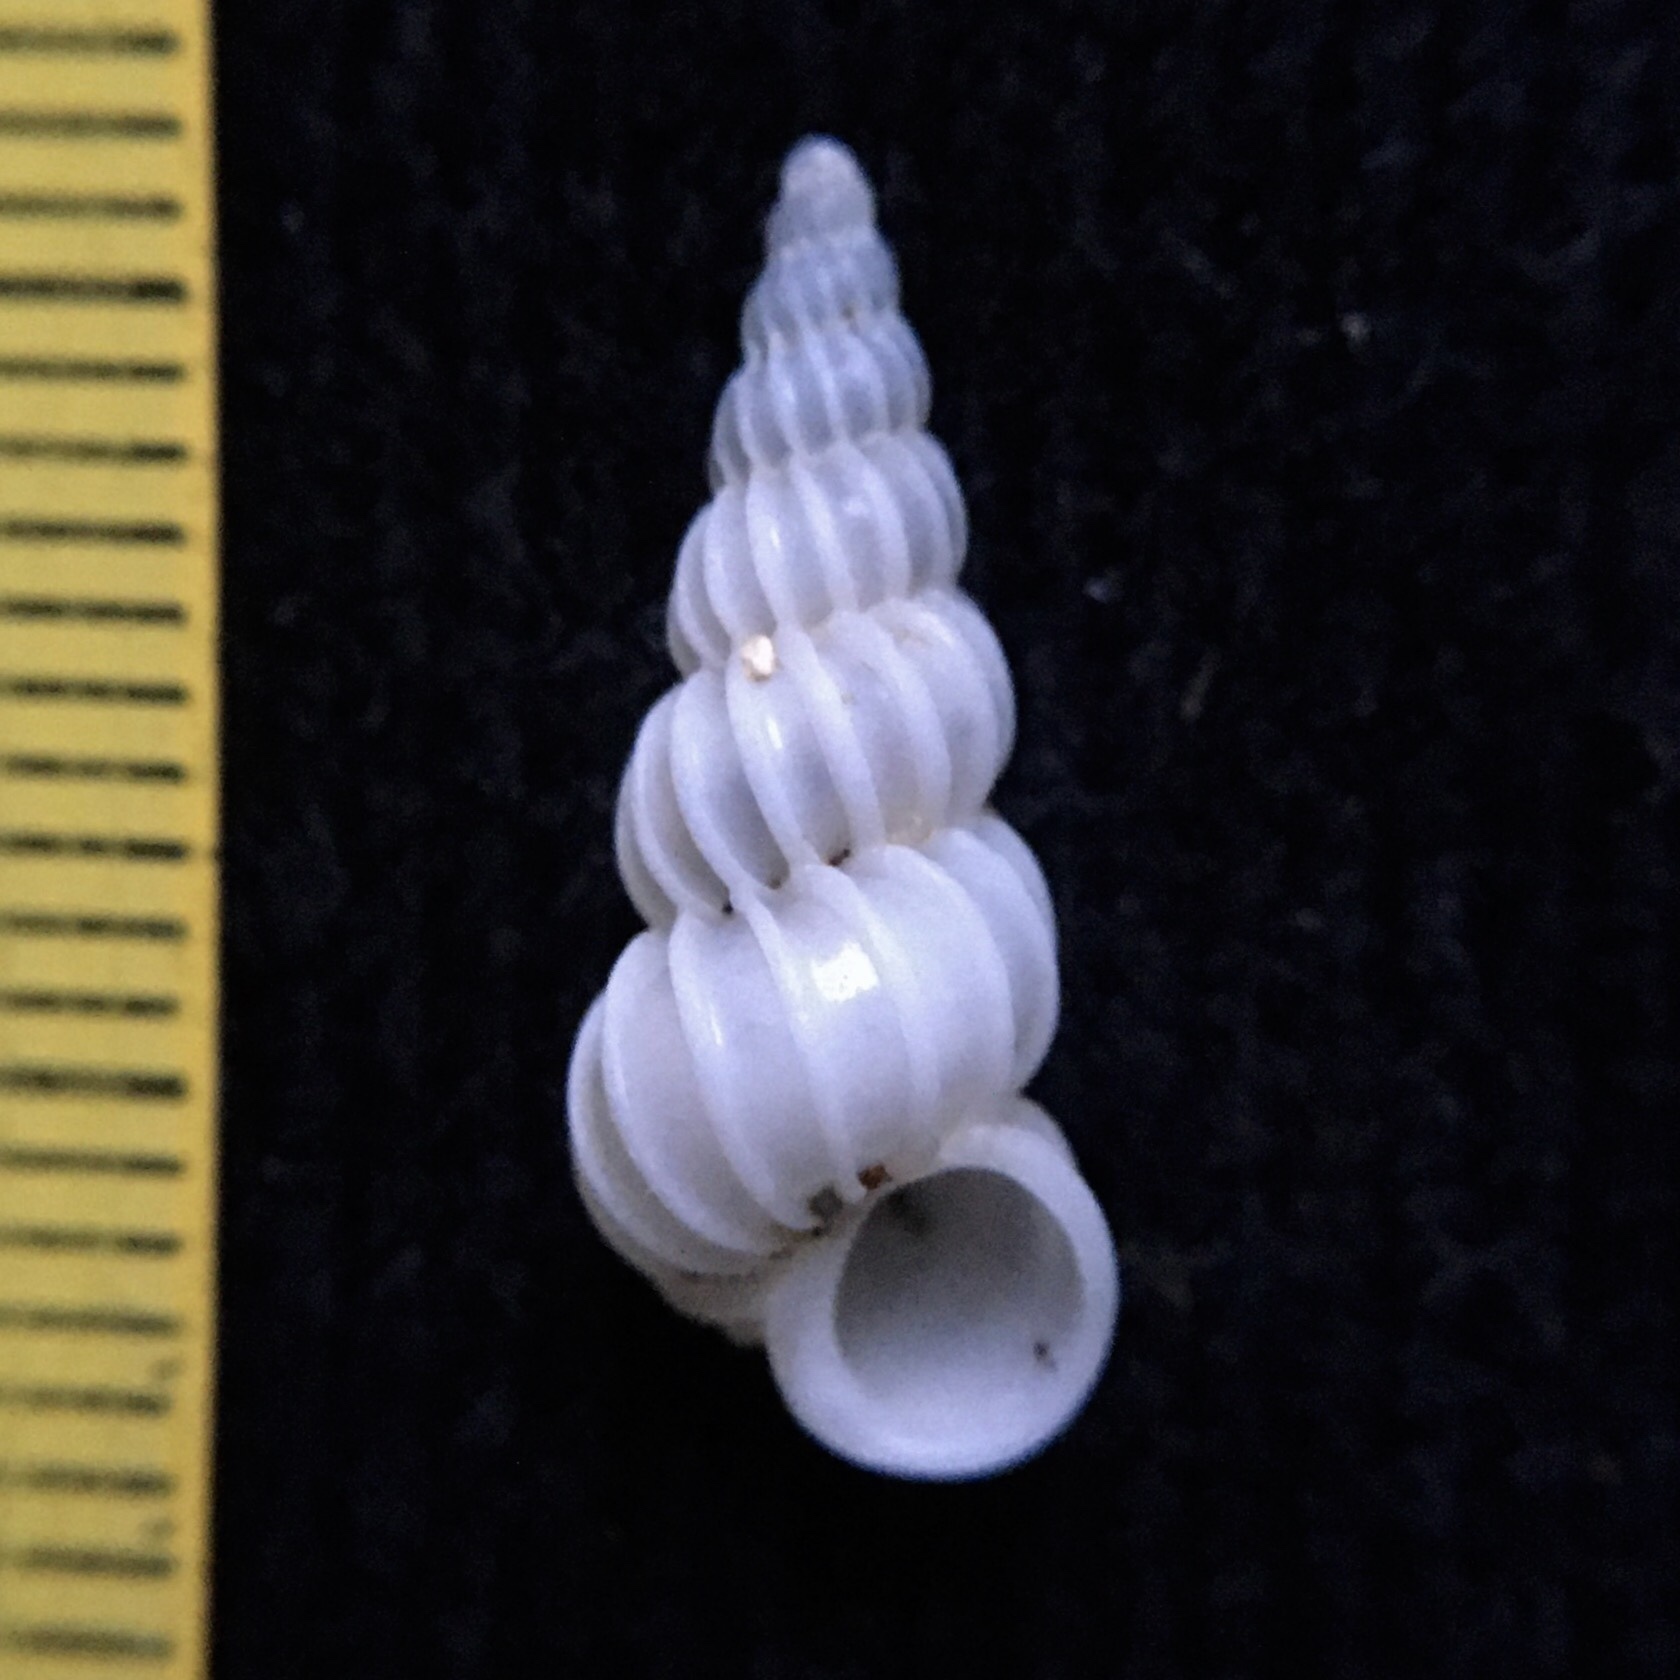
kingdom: Animalia
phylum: Mollusca
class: Gastropoda
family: Epitoniidae
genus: Epitonium
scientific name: Epitonium georgettinum
